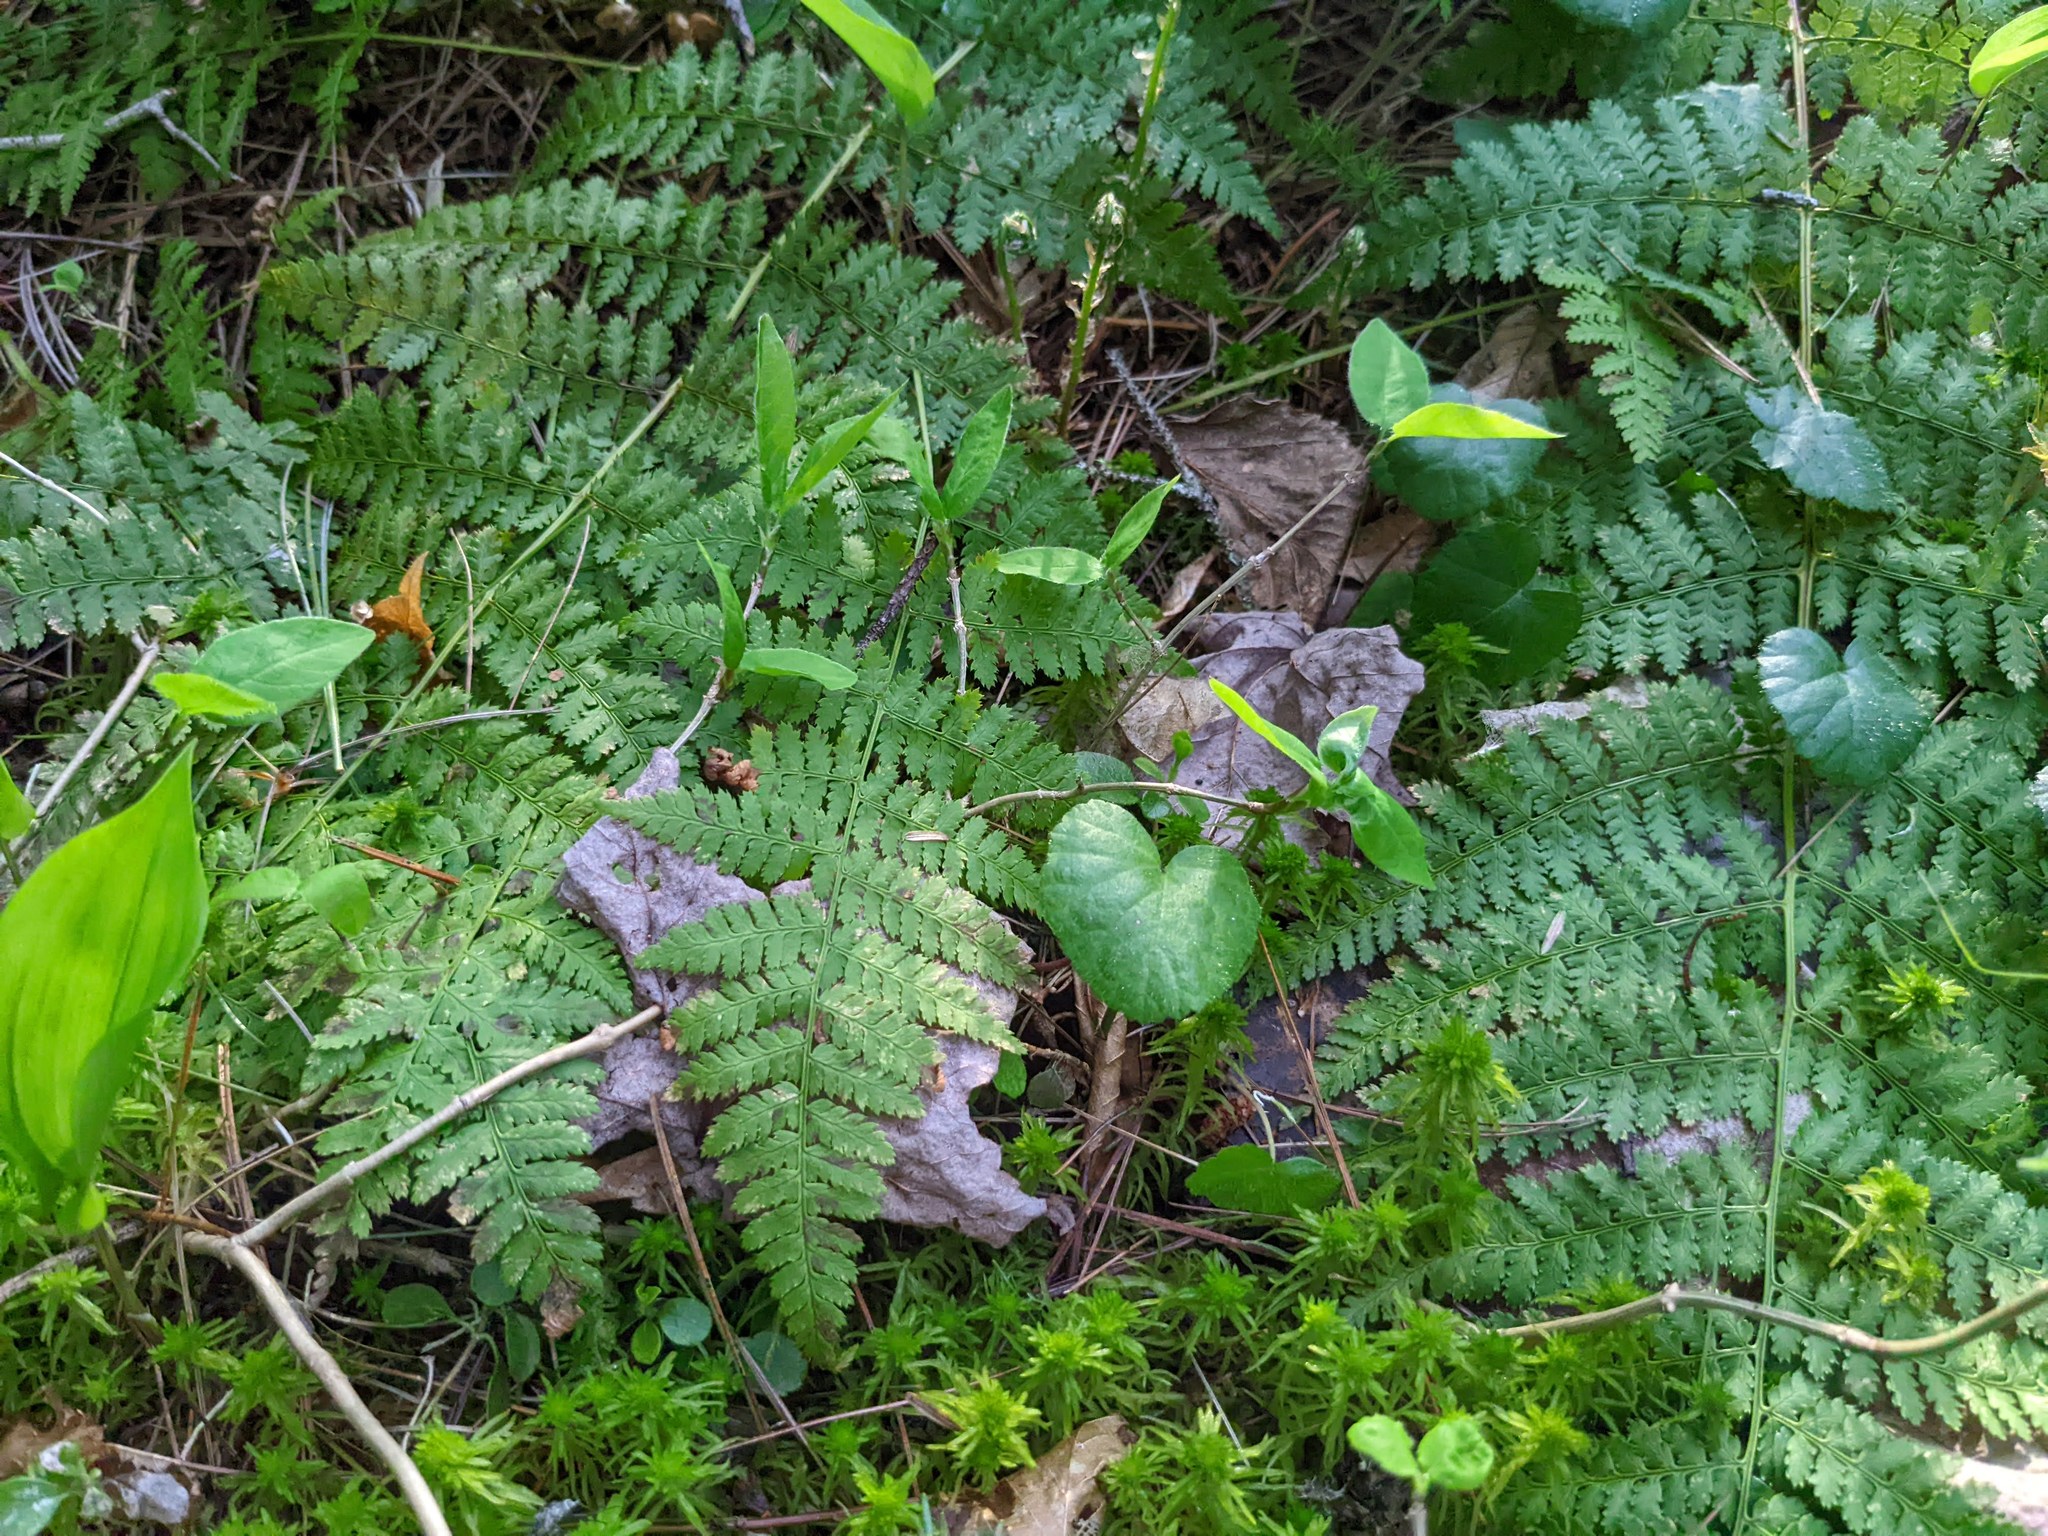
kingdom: Plantae
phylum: Tracheophyta
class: Polypodiopsida
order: Polypodiales
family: Dryopteridaceae
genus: Dryopteris
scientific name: Dryopteris intermedia
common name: Evergreen wood fern
